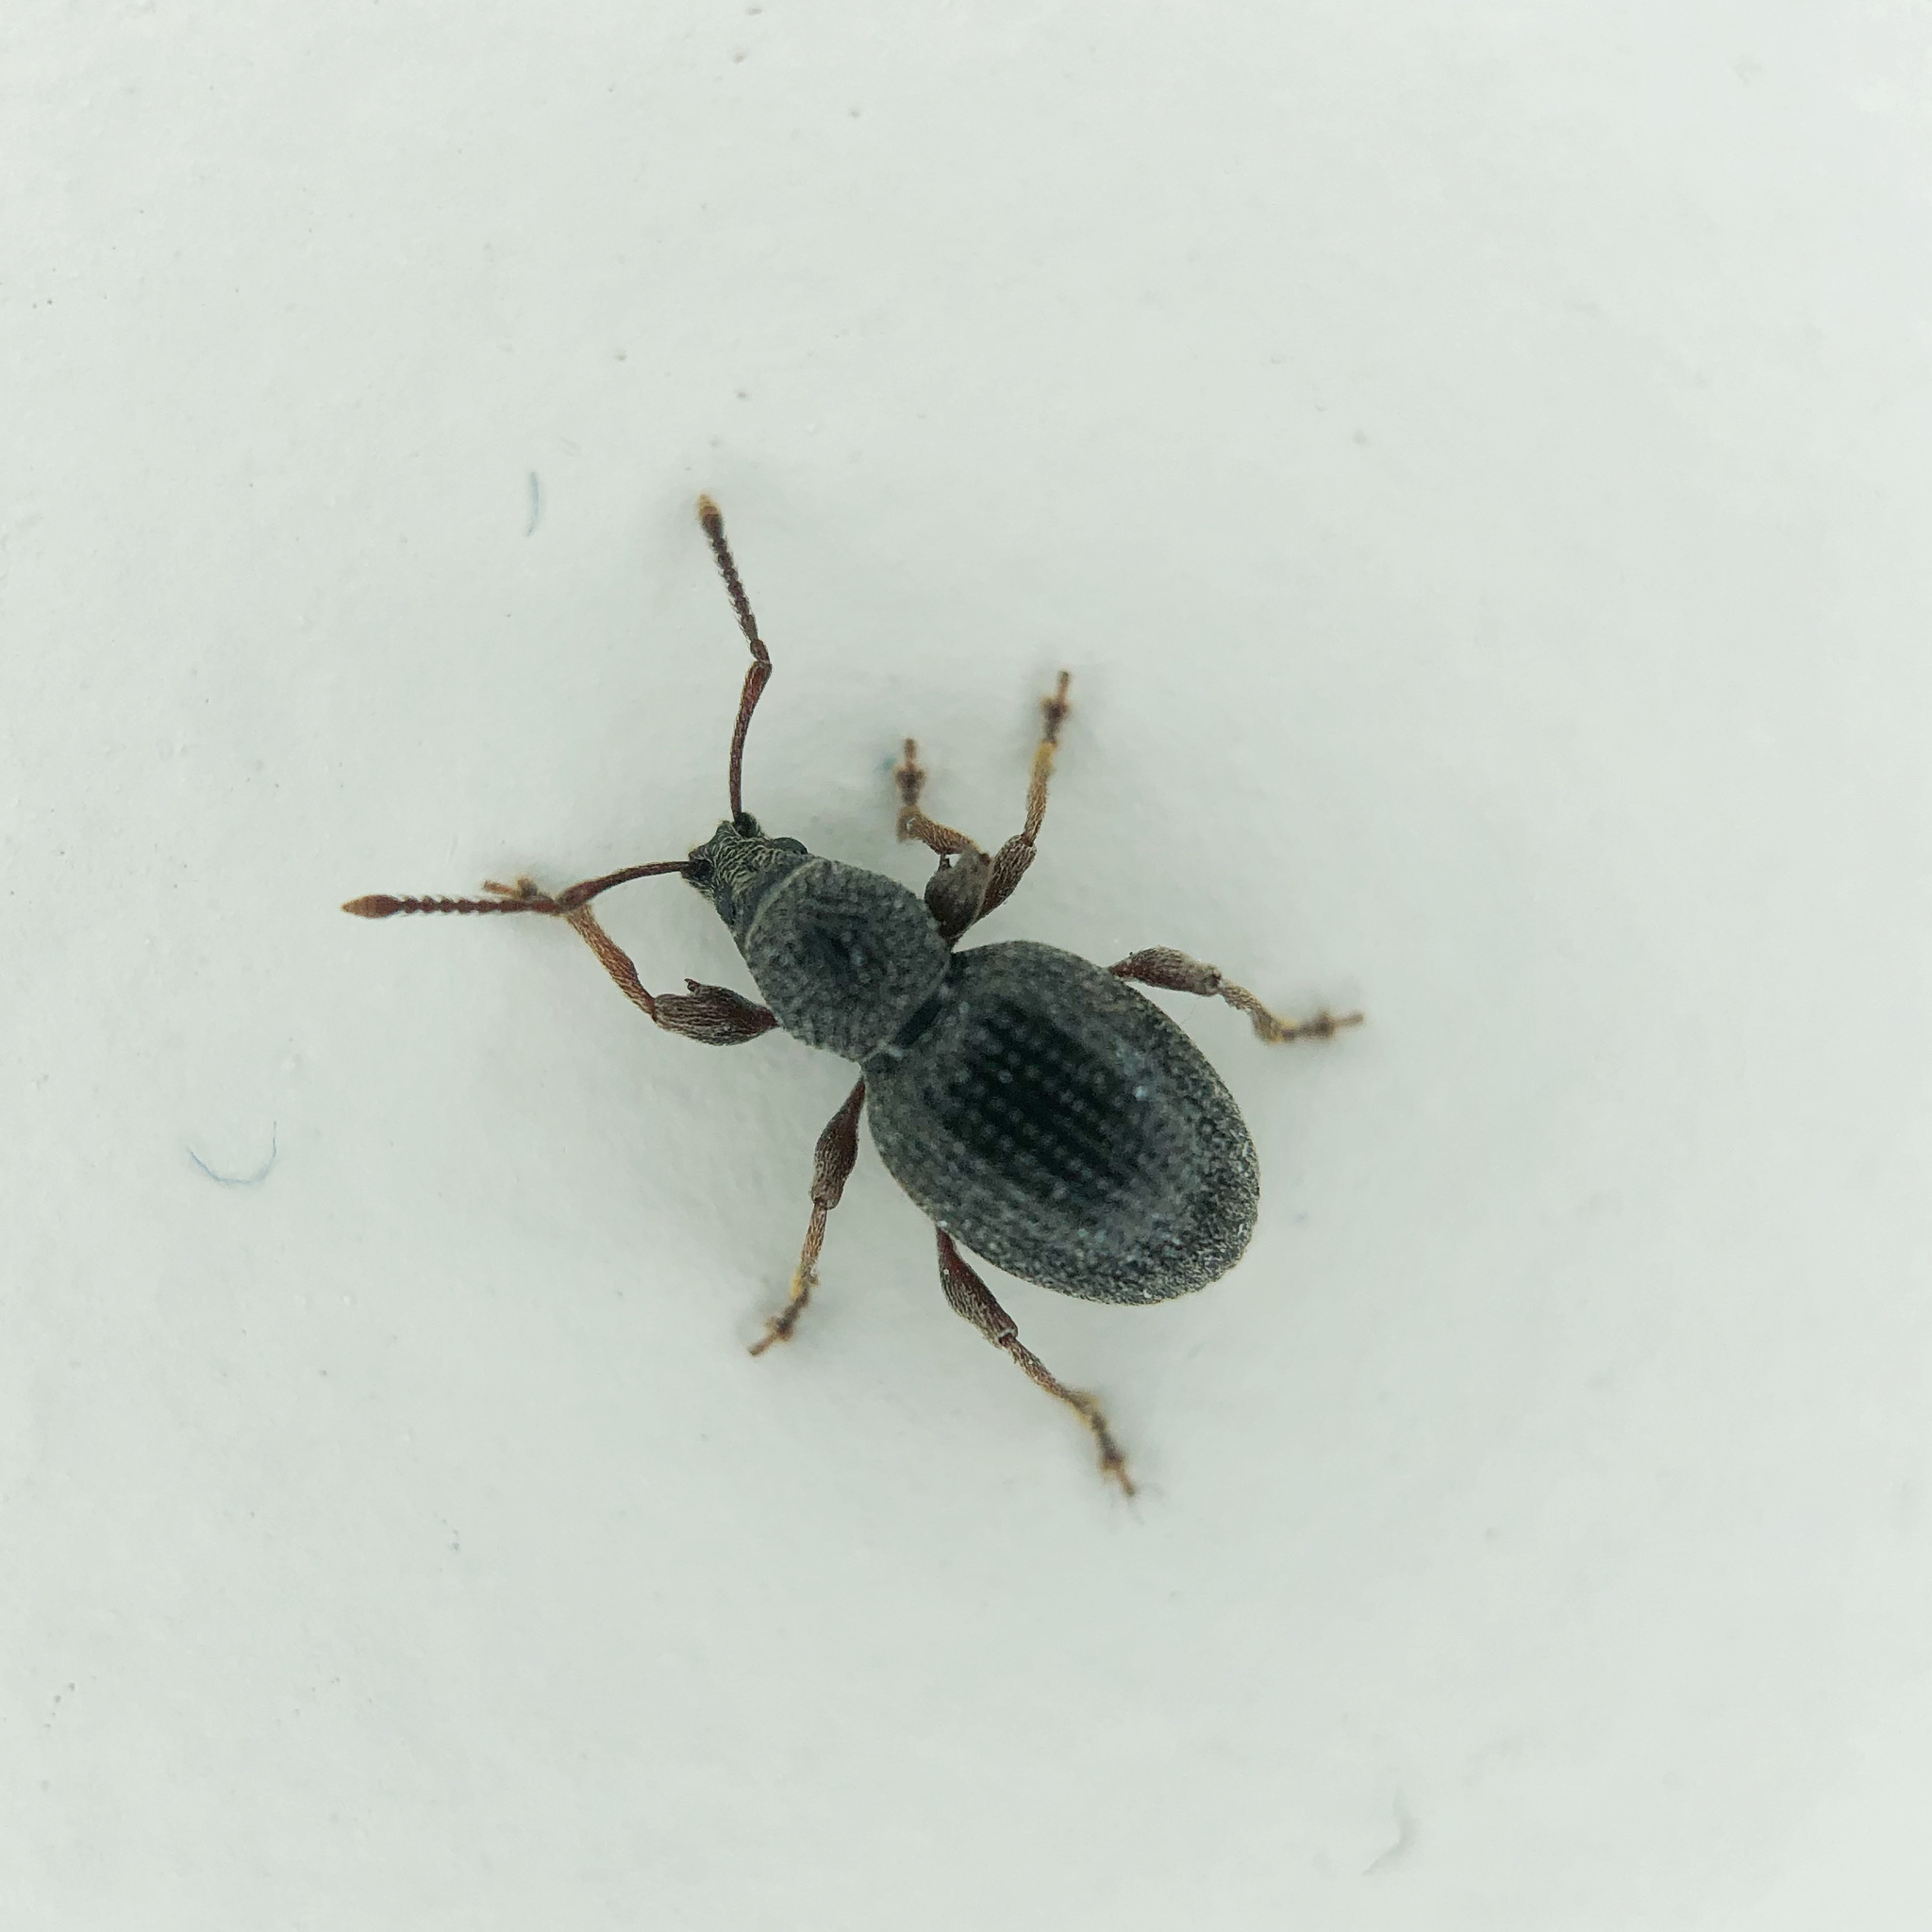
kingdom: Animalia
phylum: Arthropoda
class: Insecta
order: Coleoptera
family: Curculionidae
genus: Otiorhynchus
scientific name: Otiorhynchus ovatus
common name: Strawberry root weevil
